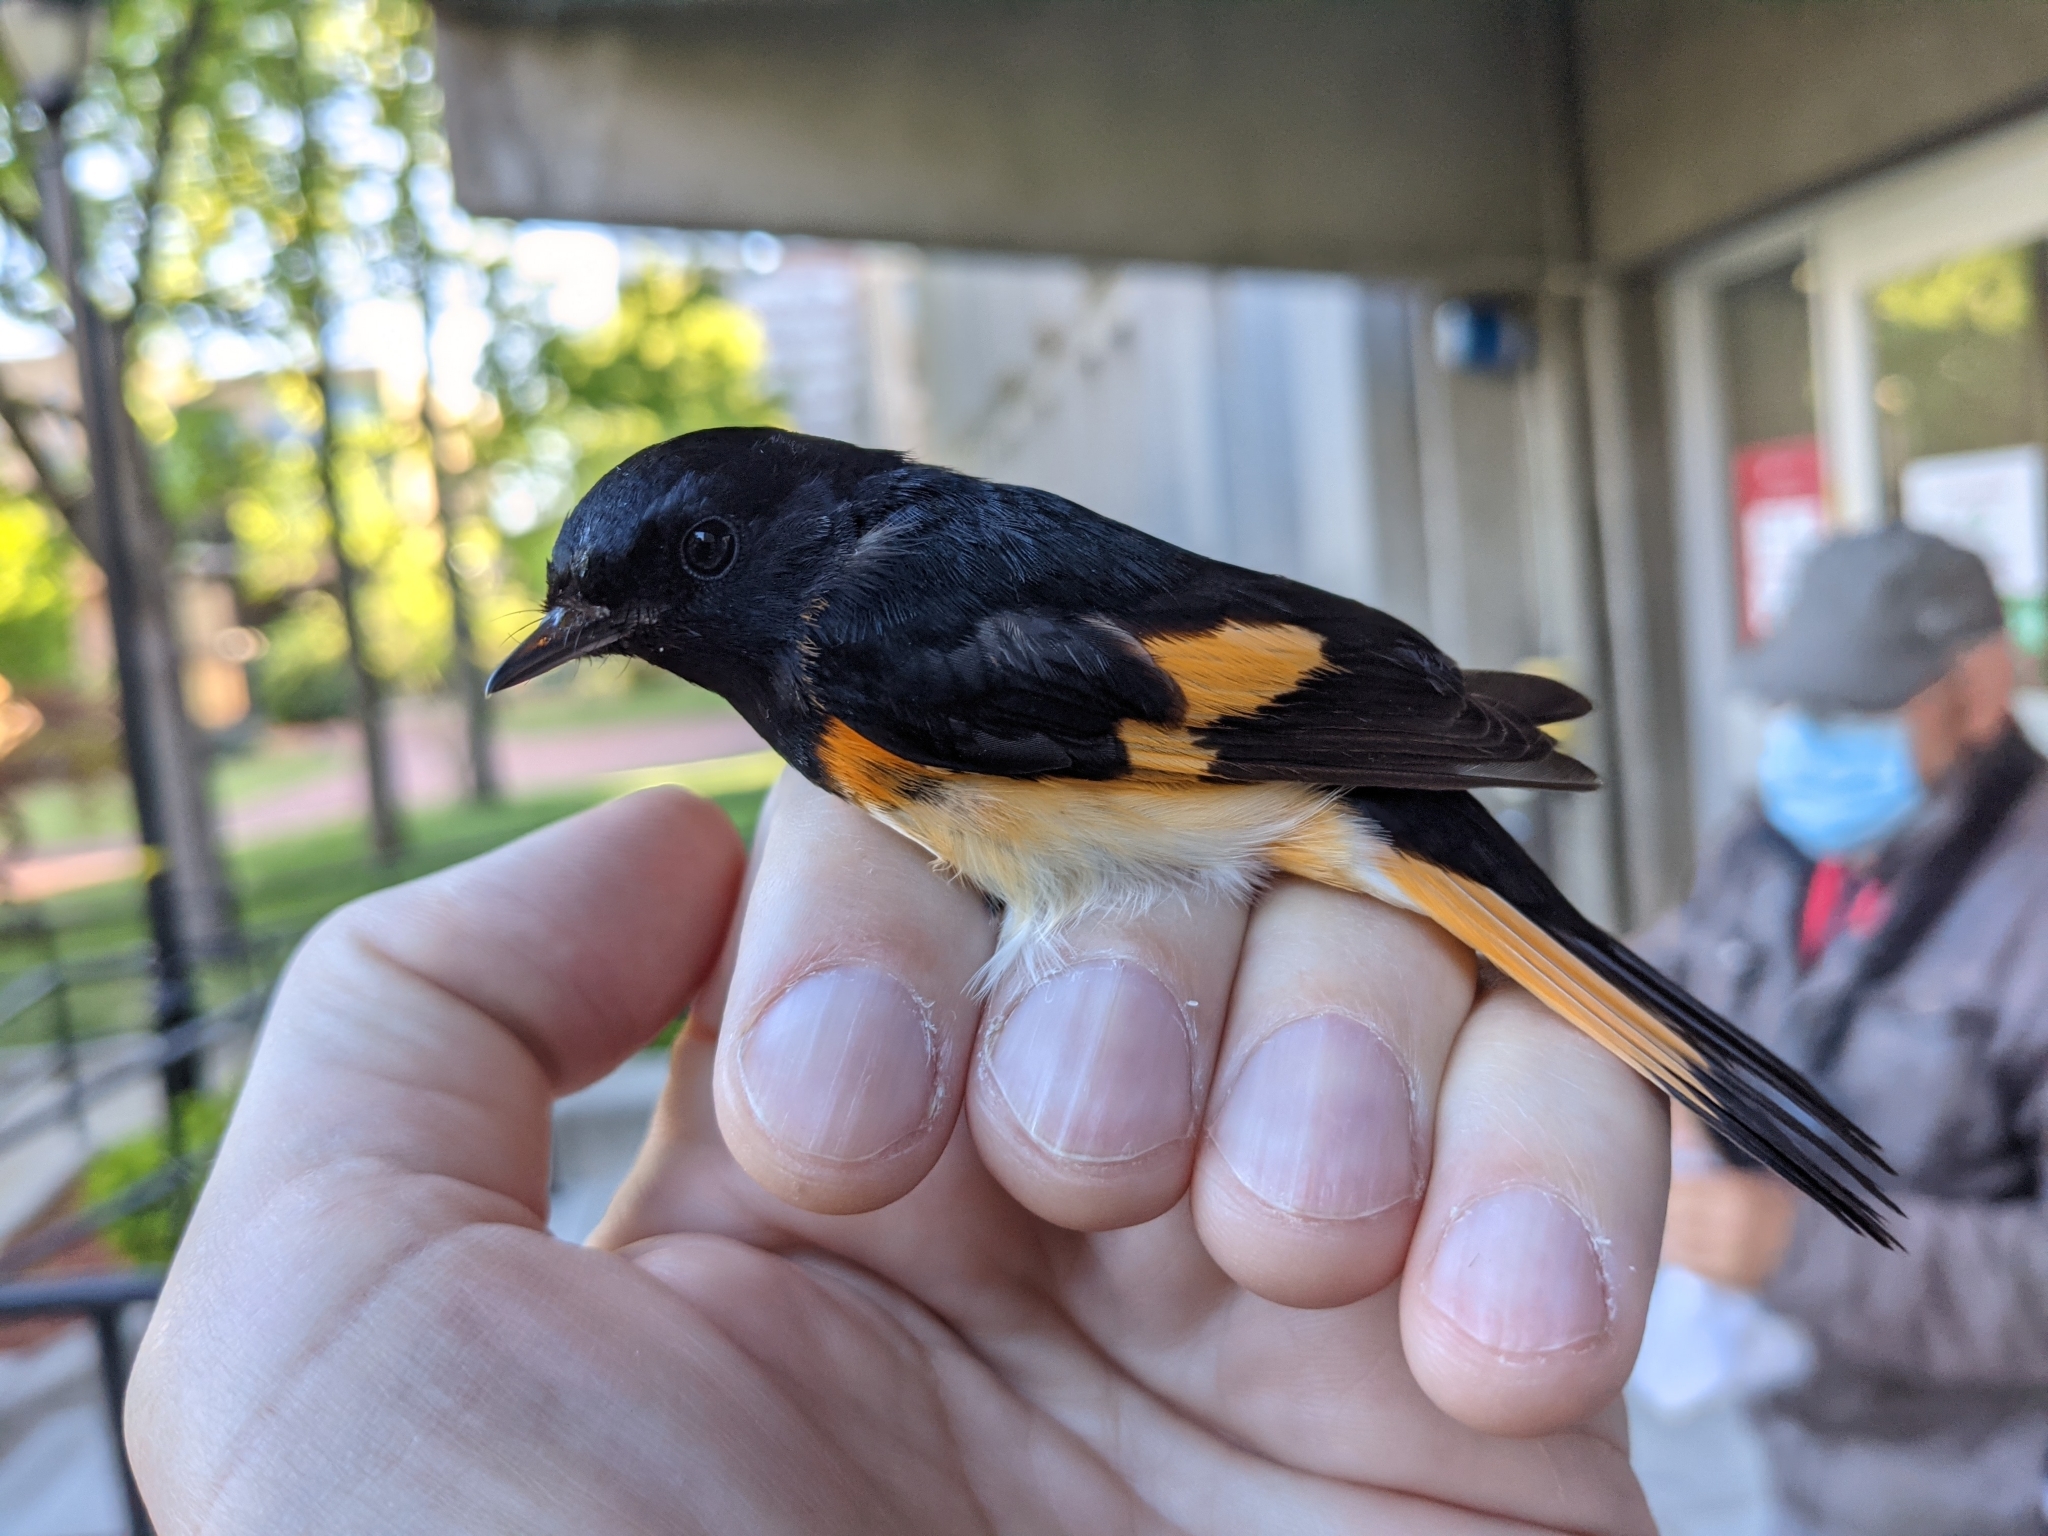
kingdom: Animalia
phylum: Chordata
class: Aves
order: Passeriformes
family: Parulidae
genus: Setophaga
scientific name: Setophaga ruticilla
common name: American redstart
